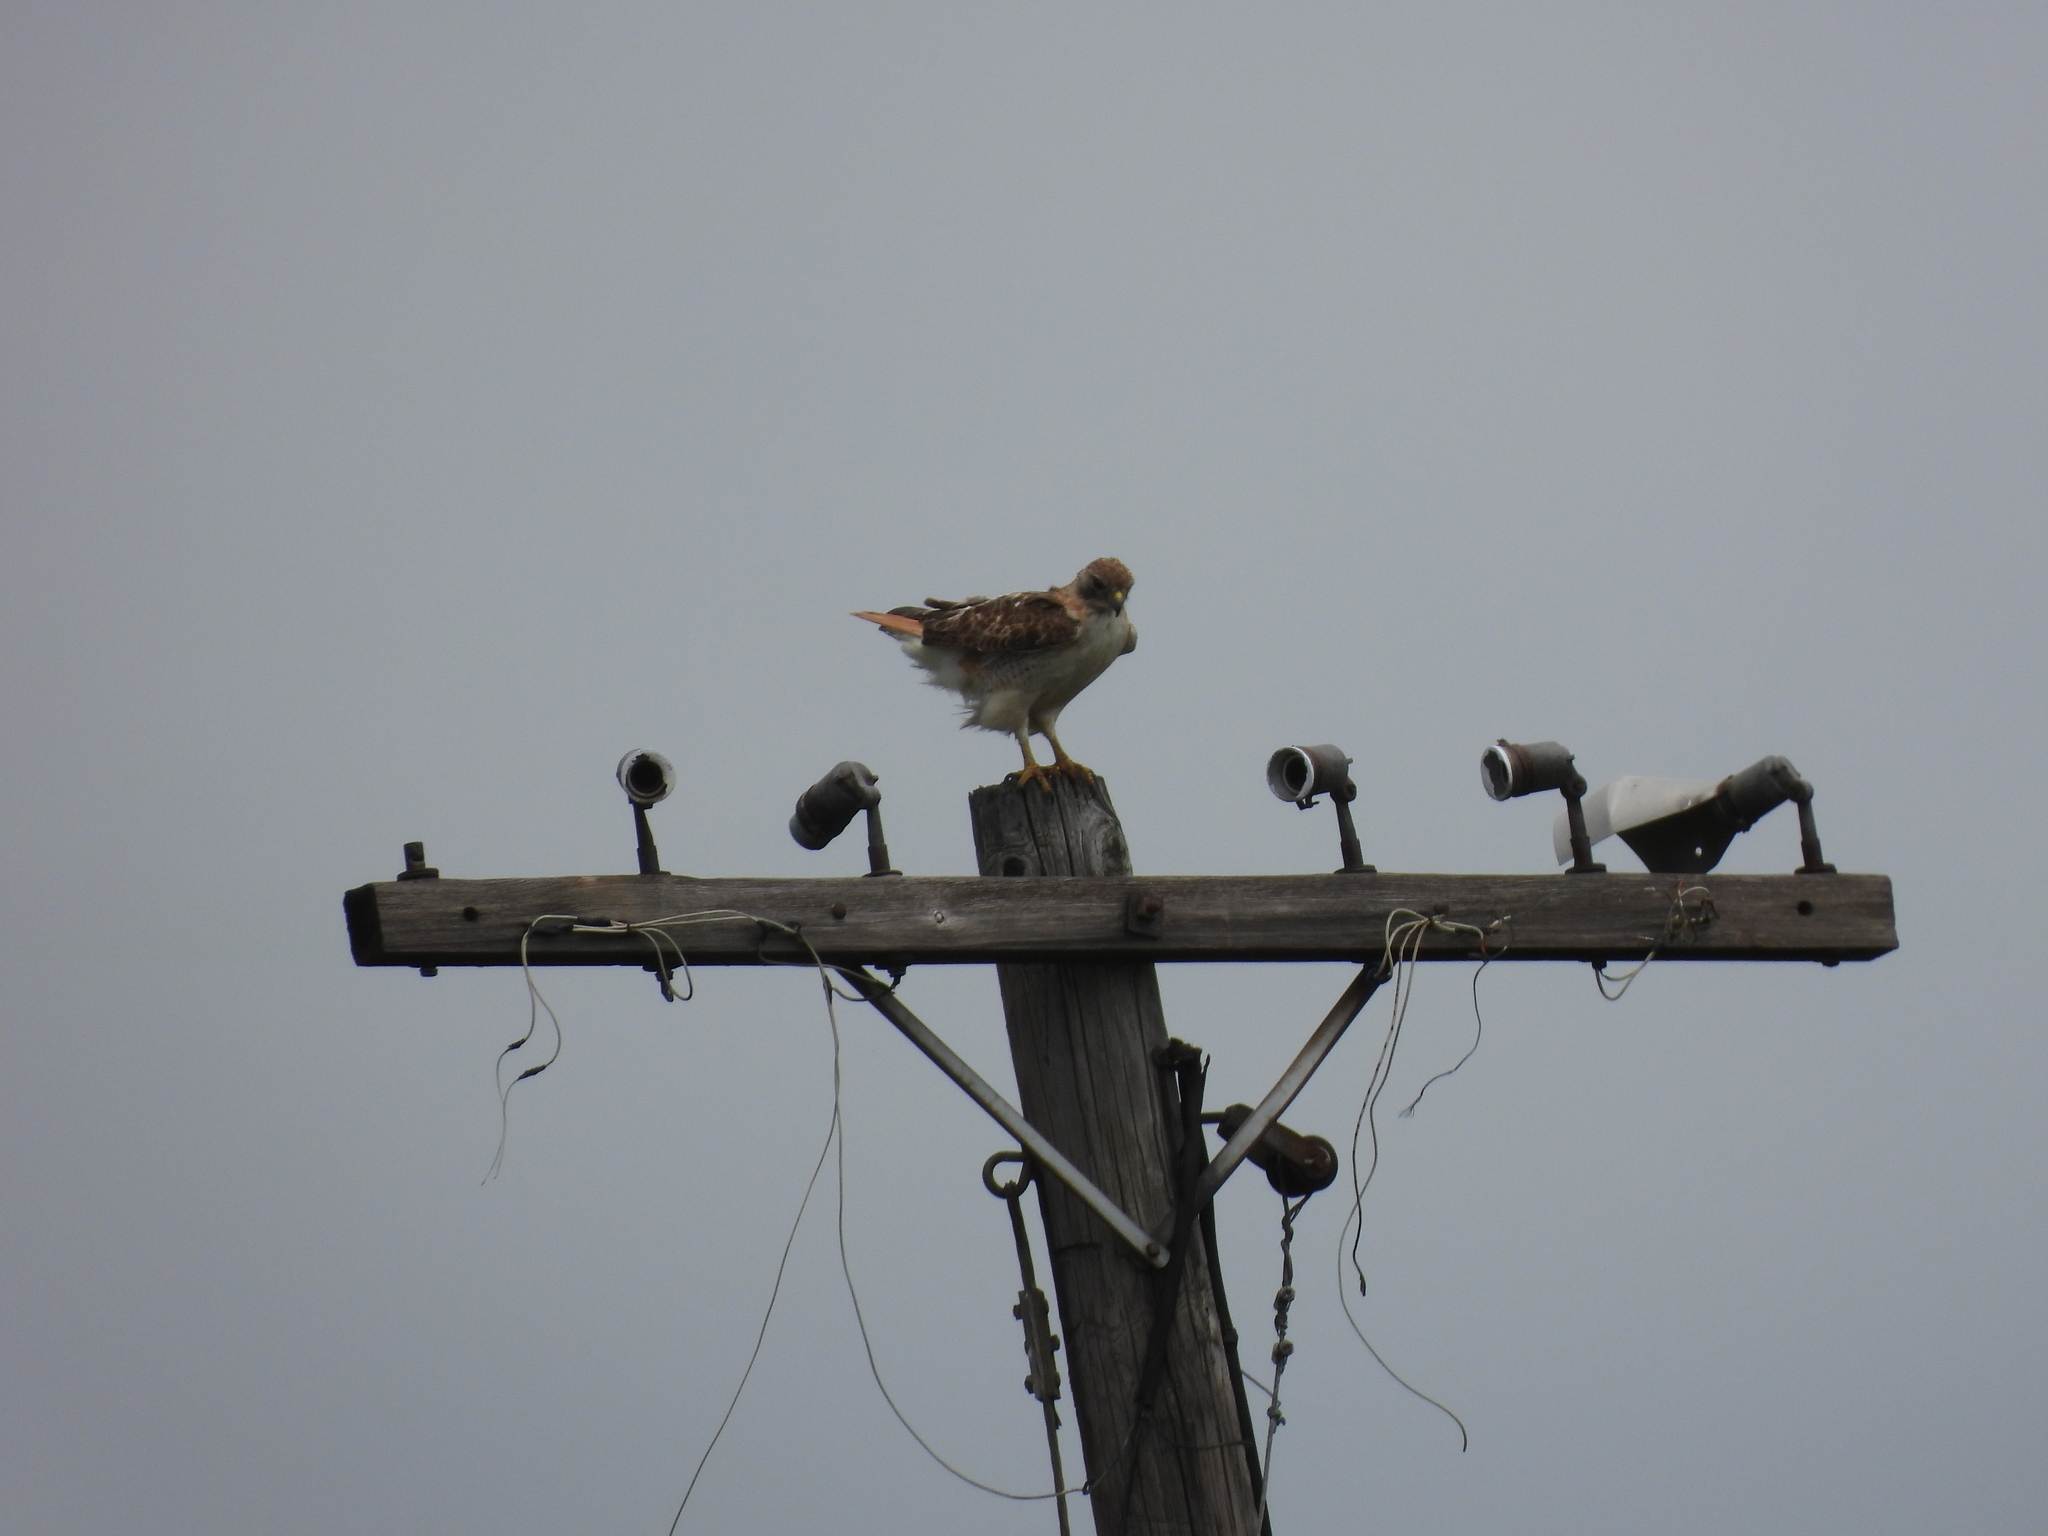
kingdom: Animalia
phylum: Chordata
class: Aves
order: Accipitriformes
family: Accipitridae
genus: Buteo
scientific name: Buteo jamaicensis
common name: Red-tailed hawk
